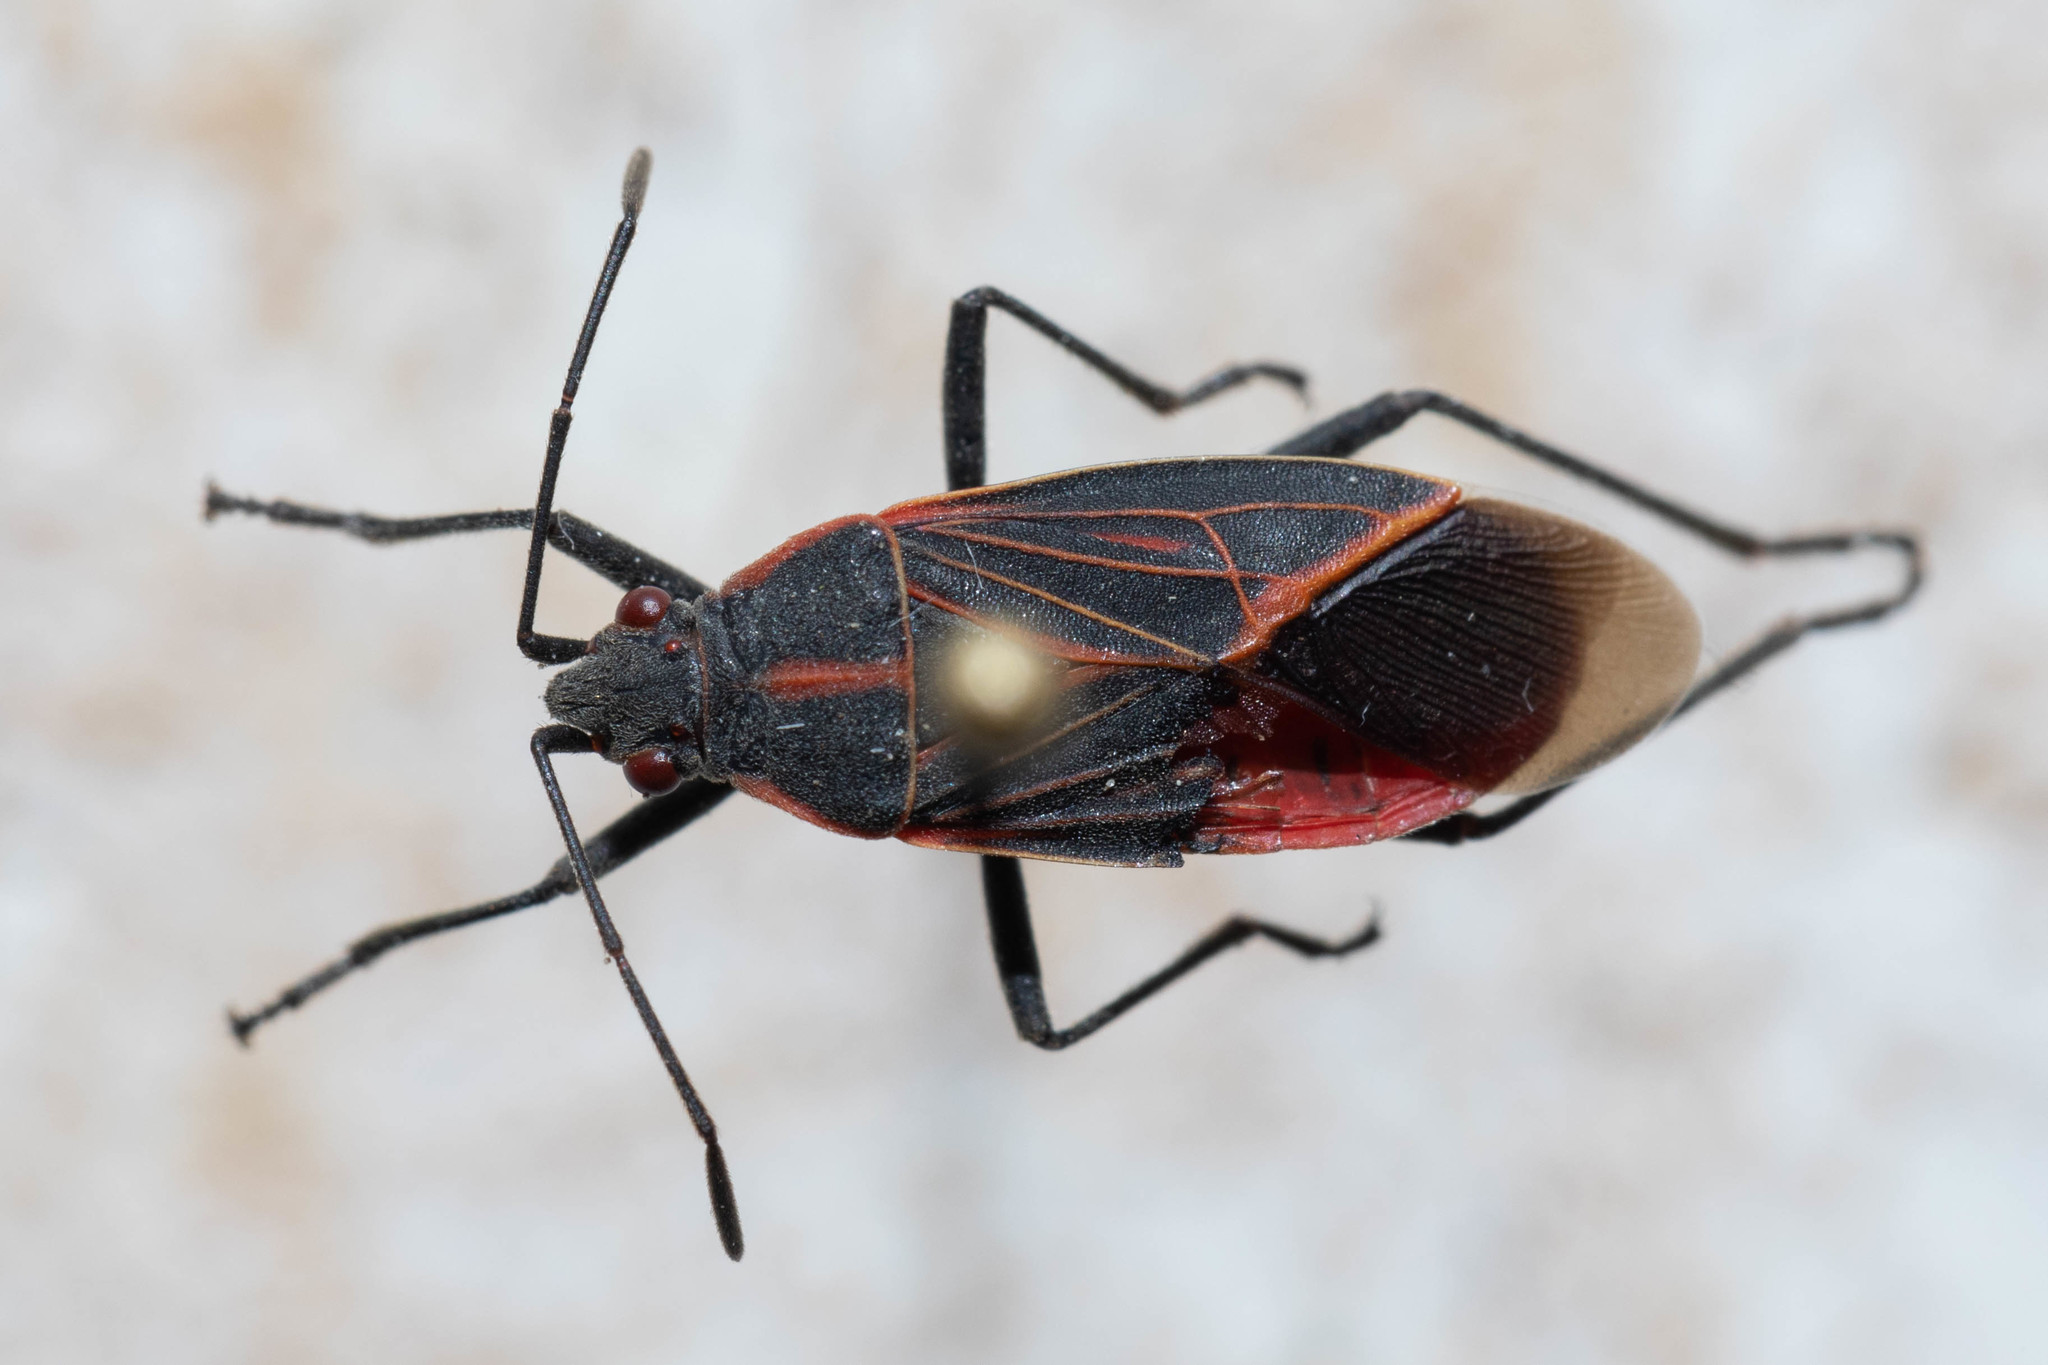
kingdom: Animalia
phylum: Arthropoda
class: Insecta
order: Hemiptera
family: Rhopalidae
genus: Boisea
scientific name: Boisea rubrolineata
